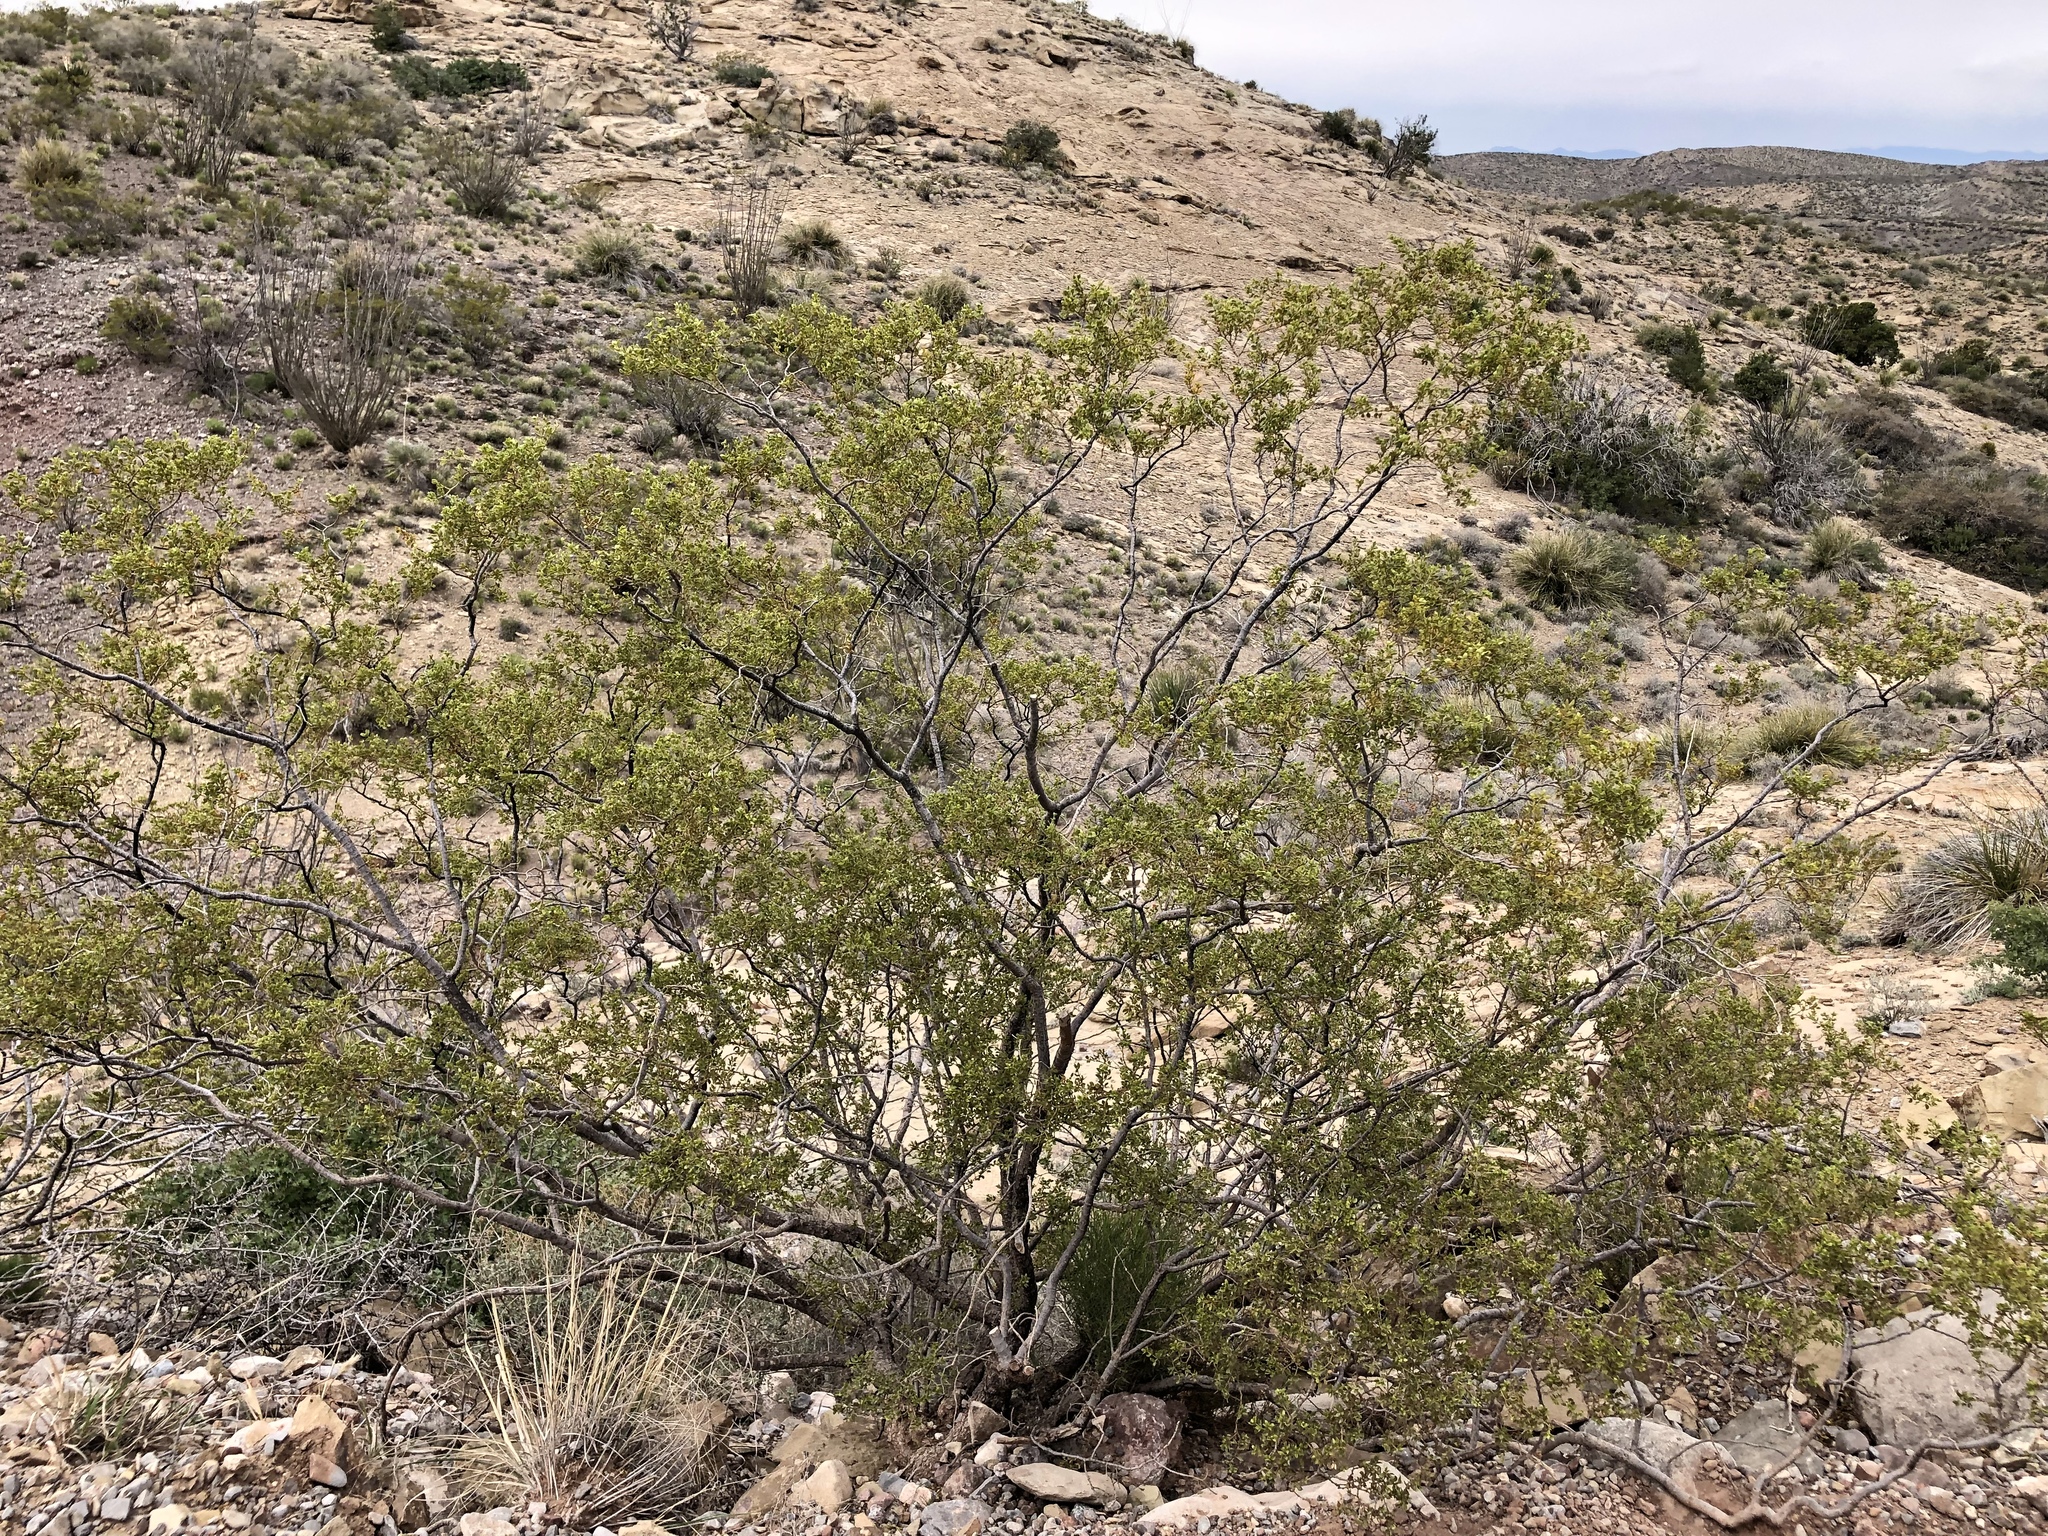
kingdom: Plantae
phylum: Tracheophyta
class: Magnoliopsida
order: Zygophyllales
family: Zygophyllaceae
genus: Larrea
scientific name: Larrea tridentata
